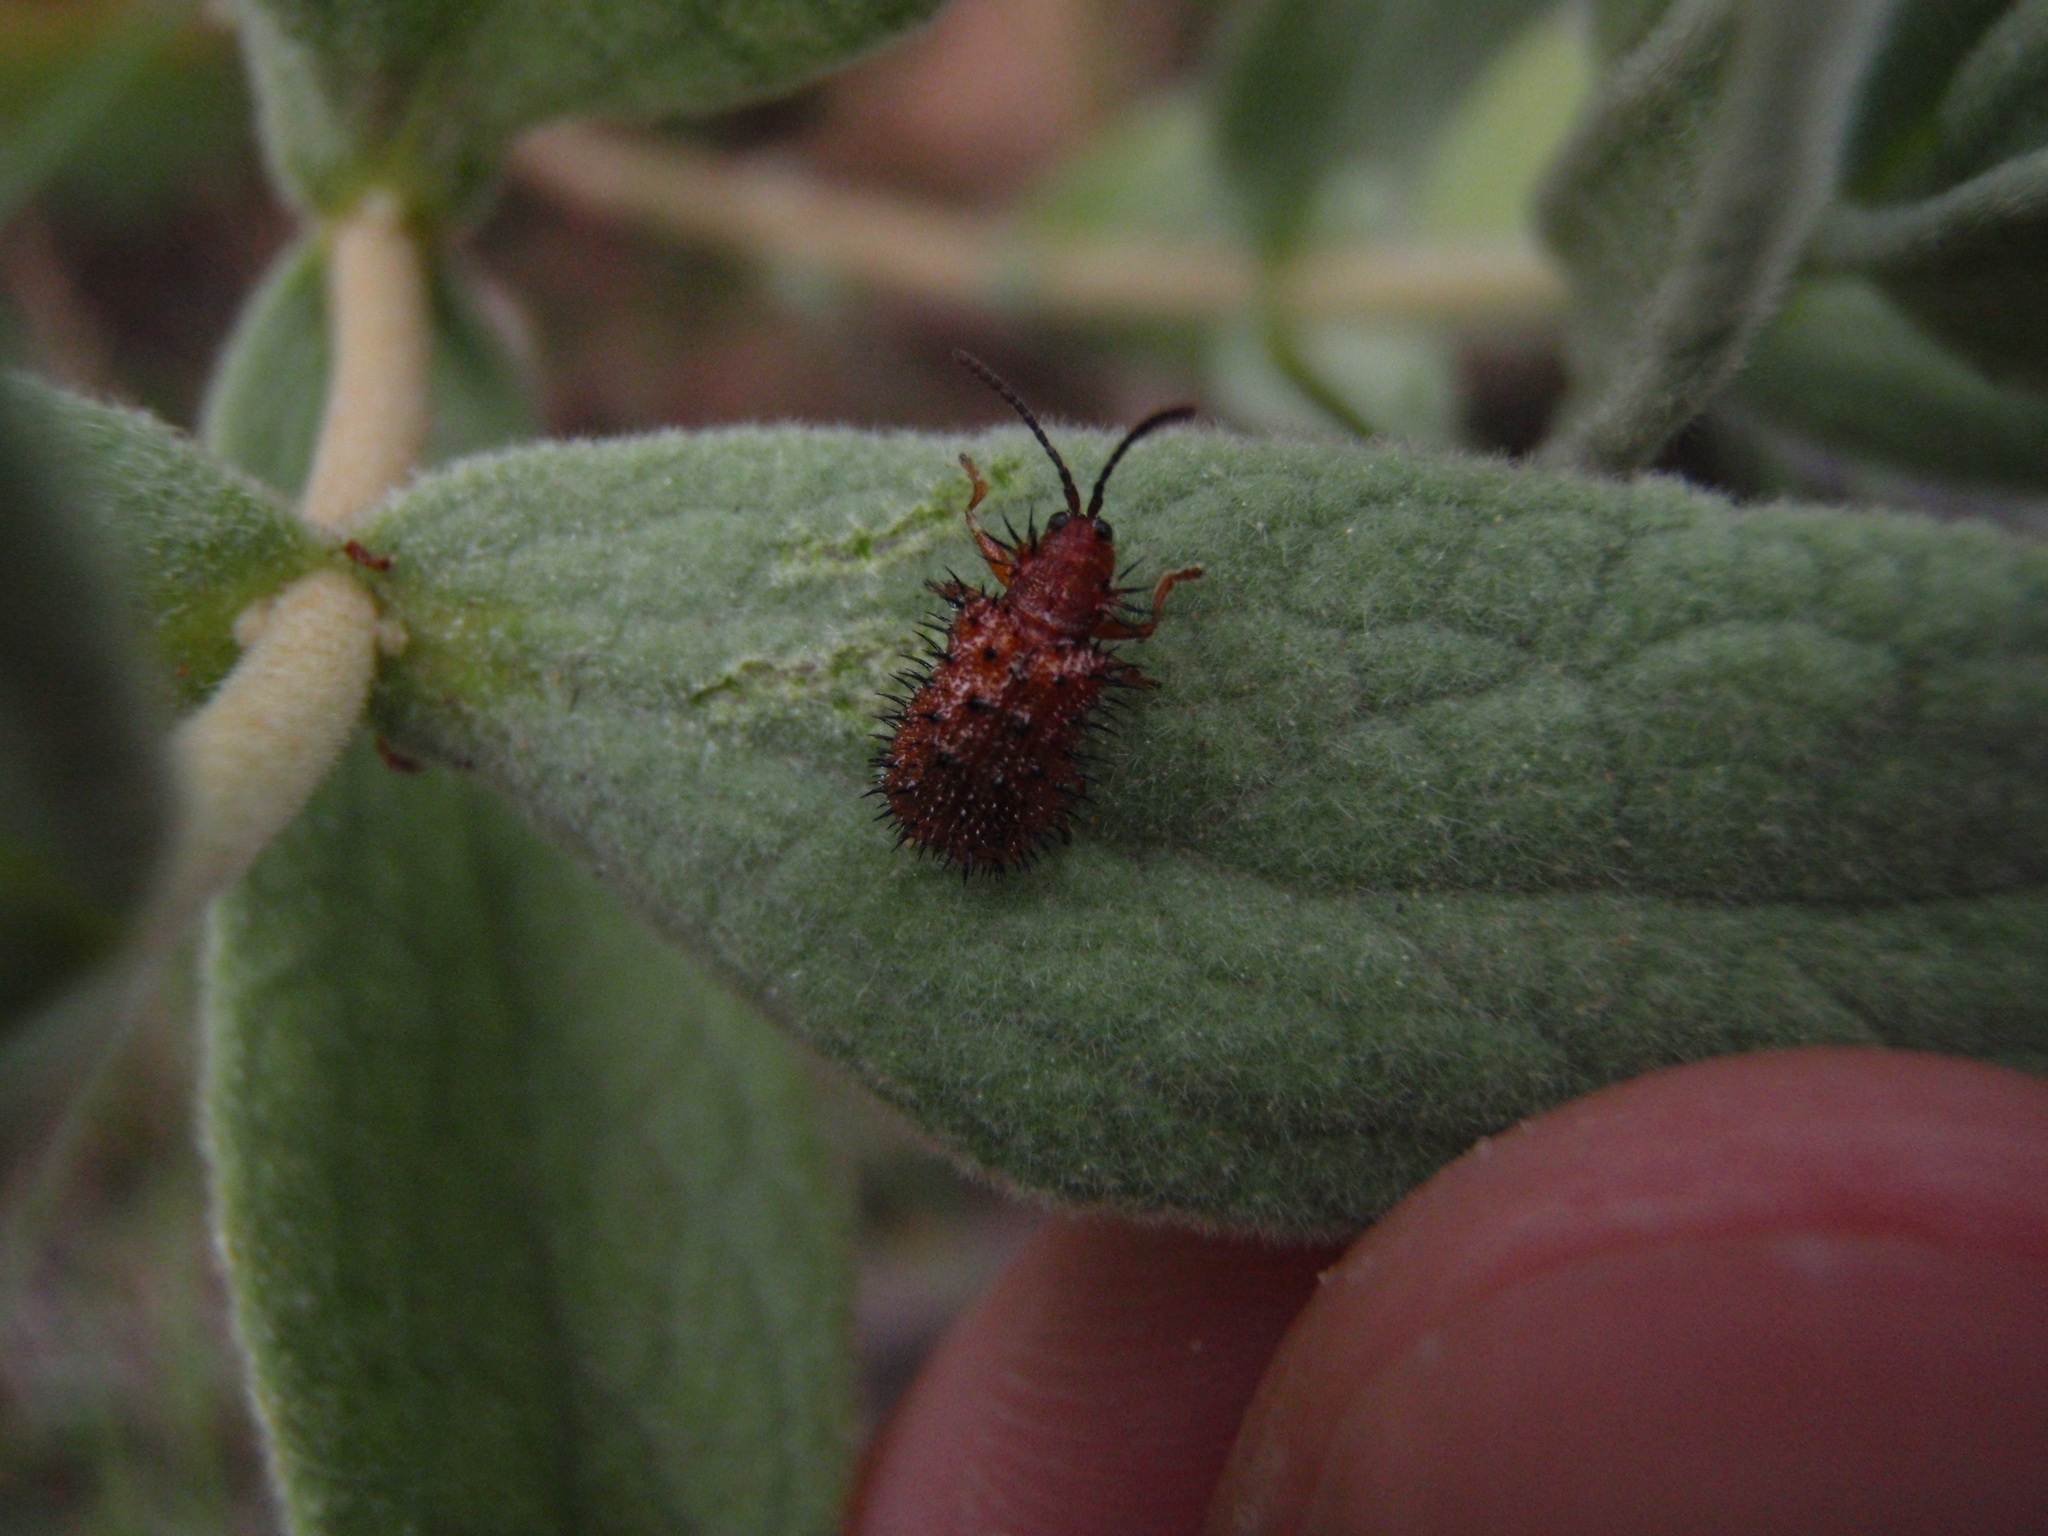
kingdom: Animalia
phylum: Arthropoda
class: Insecta
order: Coleoptera
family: Chrysomelidae
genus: Dicladispa
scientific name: Dicladispa testacea
